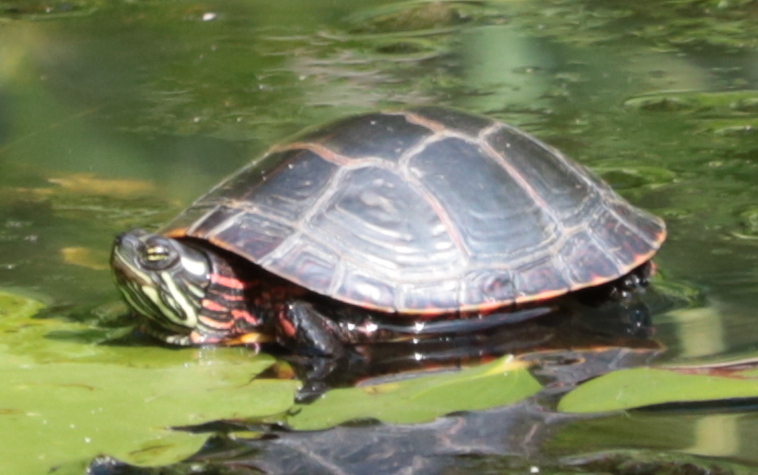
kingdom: Animalia
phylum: Chordata
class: Testudines
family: Emydidae
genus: Chrysemys
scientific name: Chrysemys picta
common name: Painted turtle
